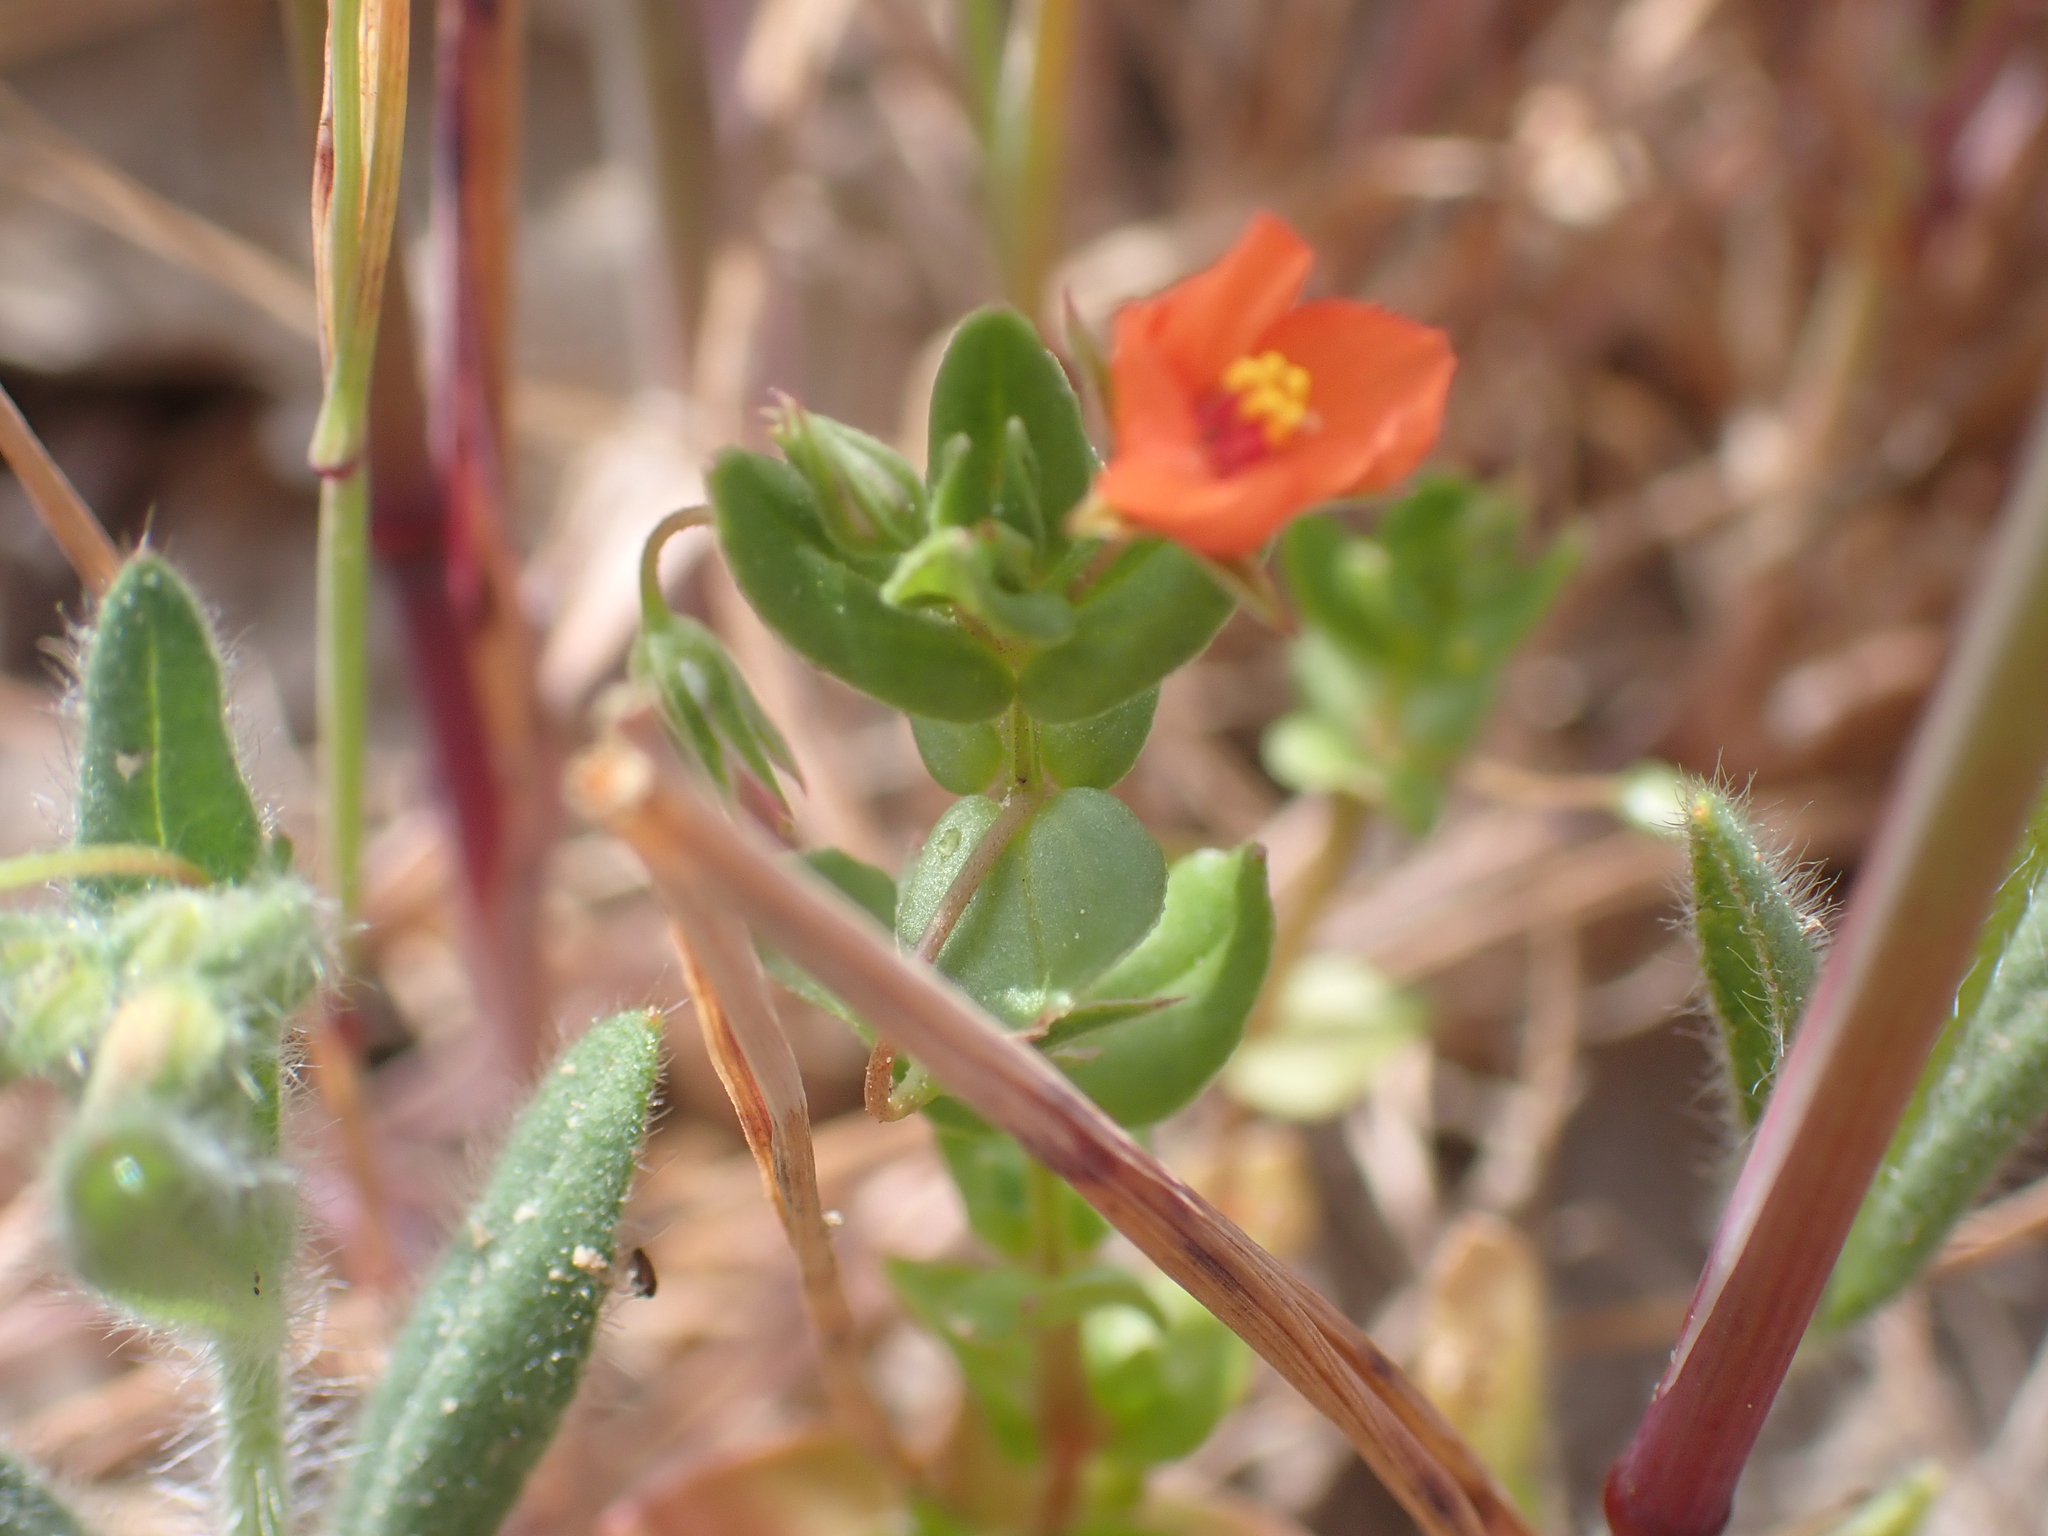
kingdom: Plantae
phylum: Tracheophyta
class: Magnoliopsida
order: Ericales
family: Primulaceae
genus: Lysimachia
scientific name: Lysimachia arvensis
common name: Scarlet pimpernel
